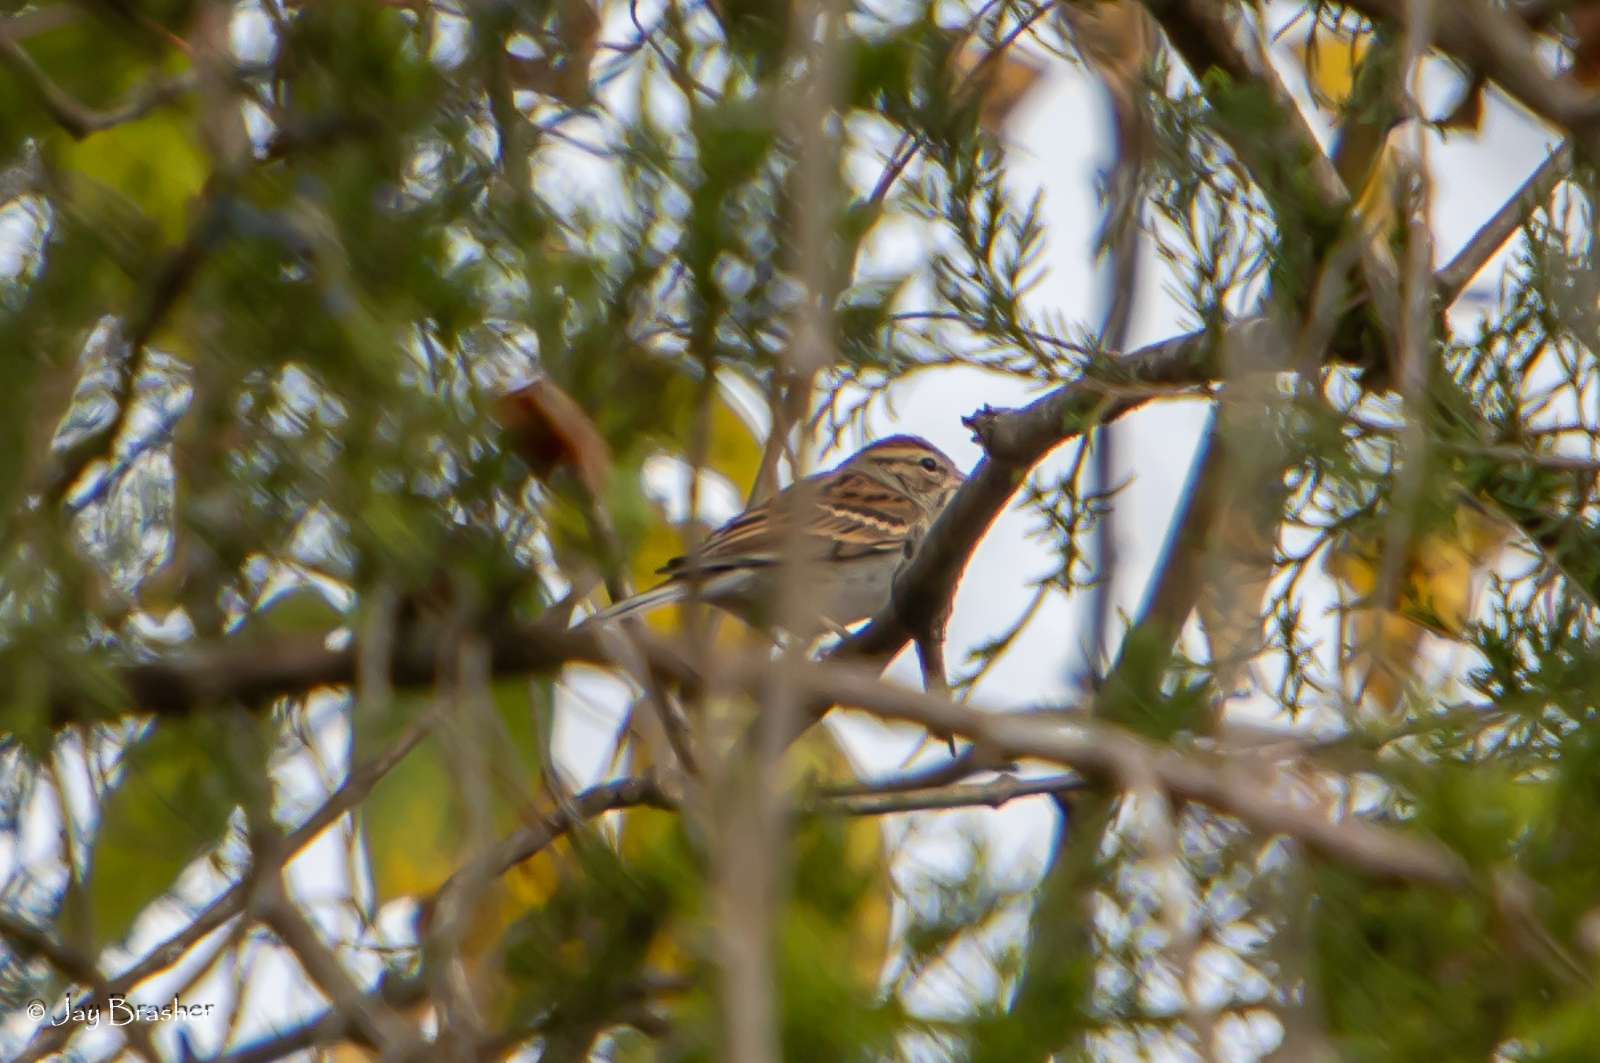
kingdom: Animalia
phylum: Chordata
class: Aves
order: Passeriformes
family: Passerellidae
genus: Spizella
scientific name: Spizella passerina
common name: Chipping sparrow
